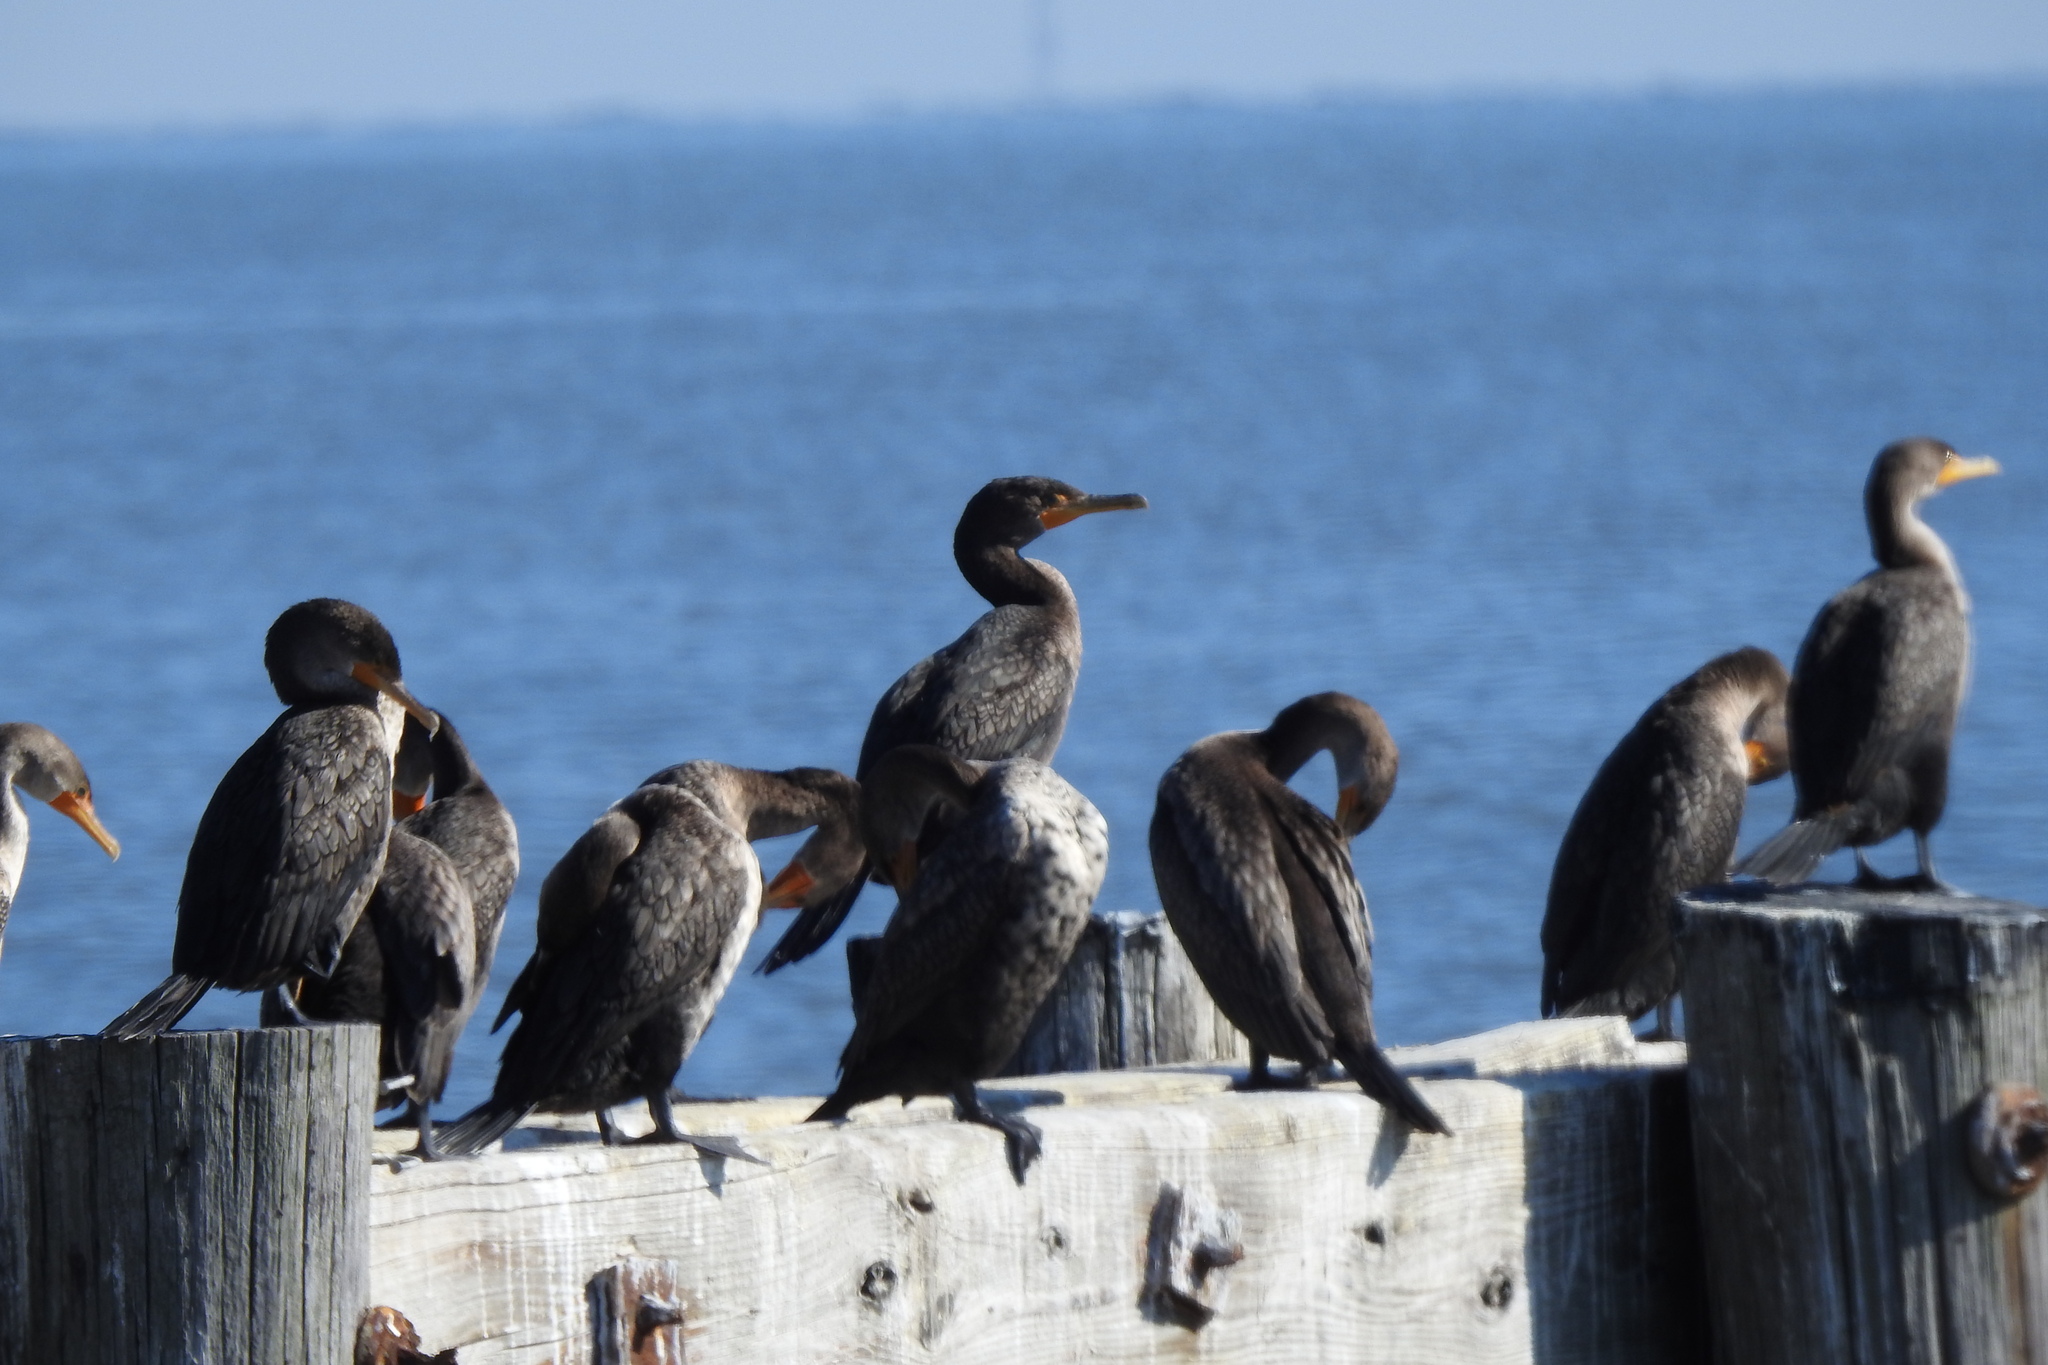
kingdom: Animalia
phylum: Chordata
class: Aves
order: Suliformes
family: Phalacrocoracidae
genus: Phalacrocorax
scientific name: Phalacrocorax auritus
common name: Double-crested cormorant
